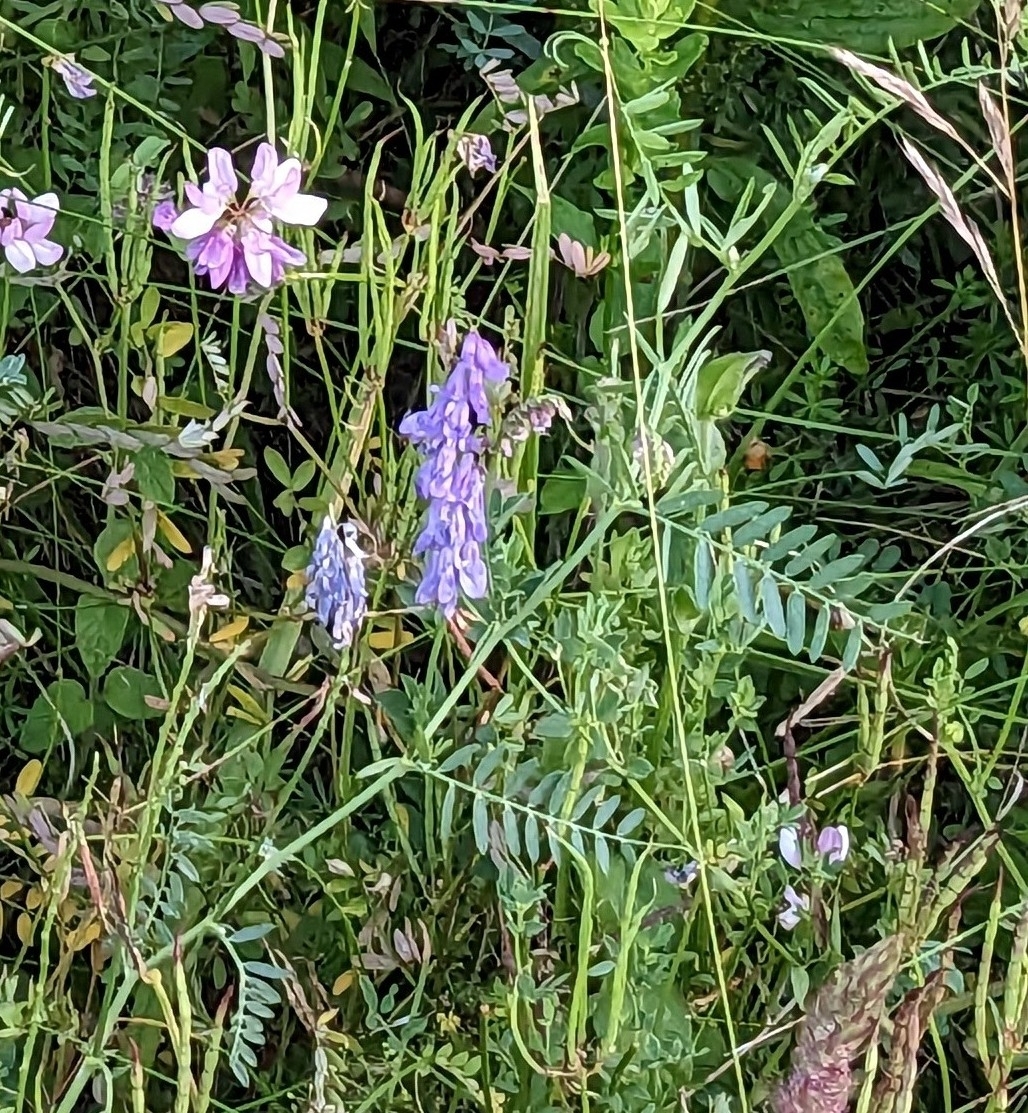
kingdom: Plantae
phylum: Tracheophyta
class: Magnoliopsida
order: Fabales
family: Fabaceae
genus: Vicia
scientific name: Vicia cracca
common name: Bird vetch
